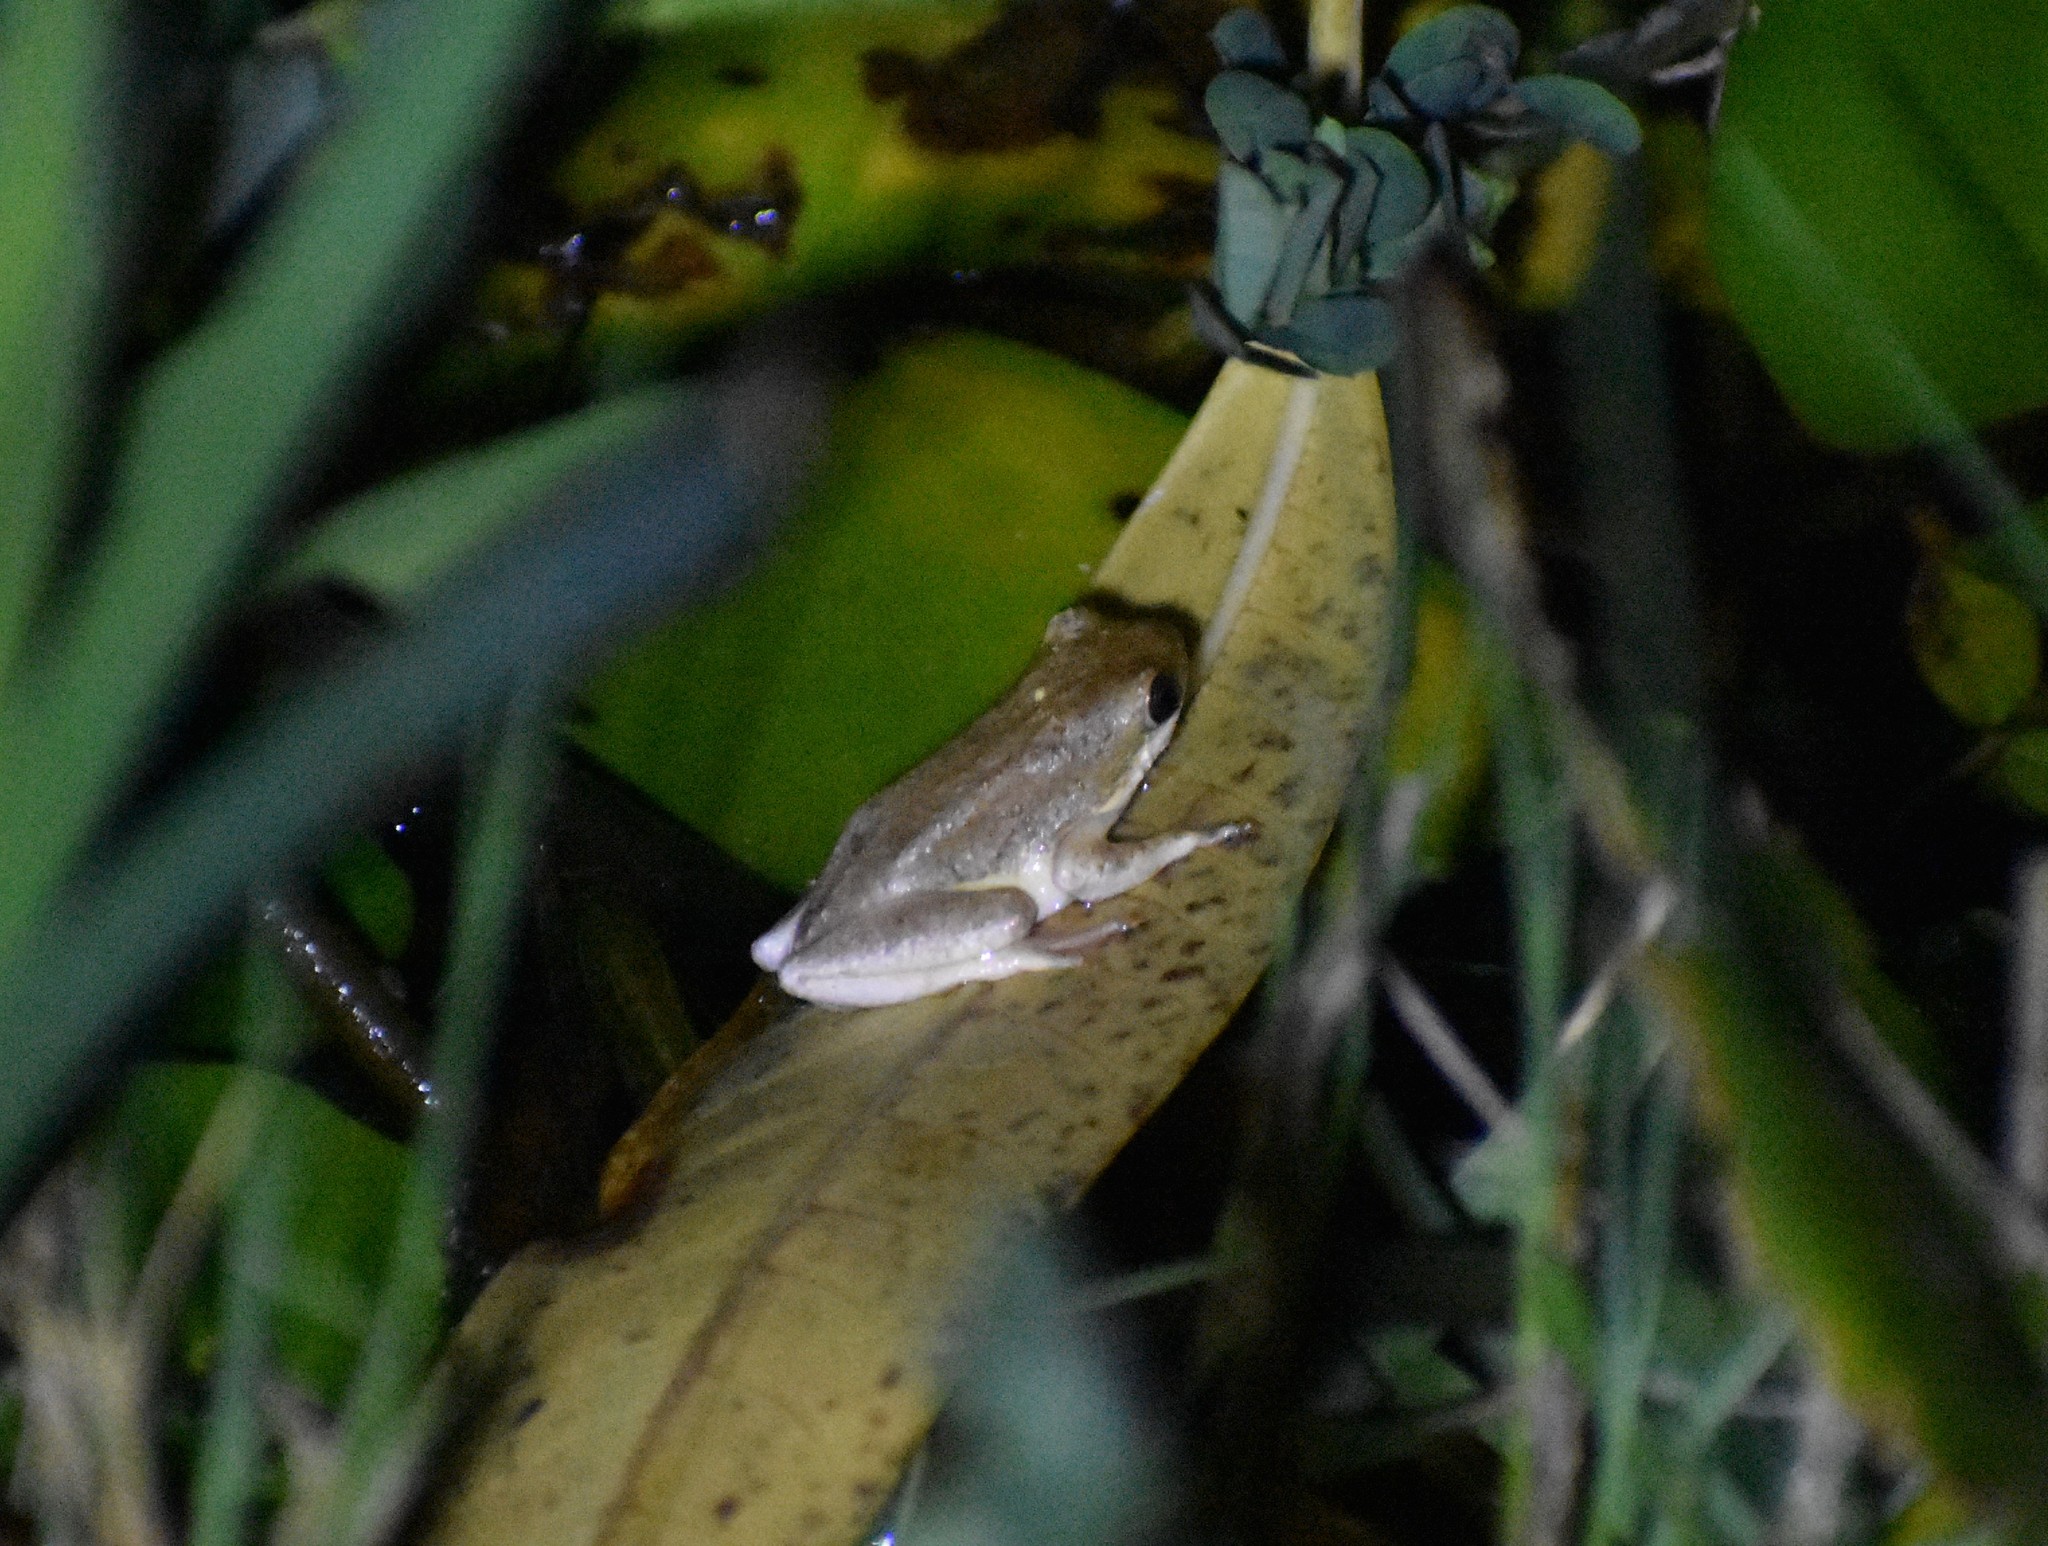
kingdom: Animalia
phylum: Chordata
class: Amphibia
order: Anura
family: Hyperoliidae
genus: Hyperolius
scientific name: Hyperolius marmoratus
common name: Painted reed frog
